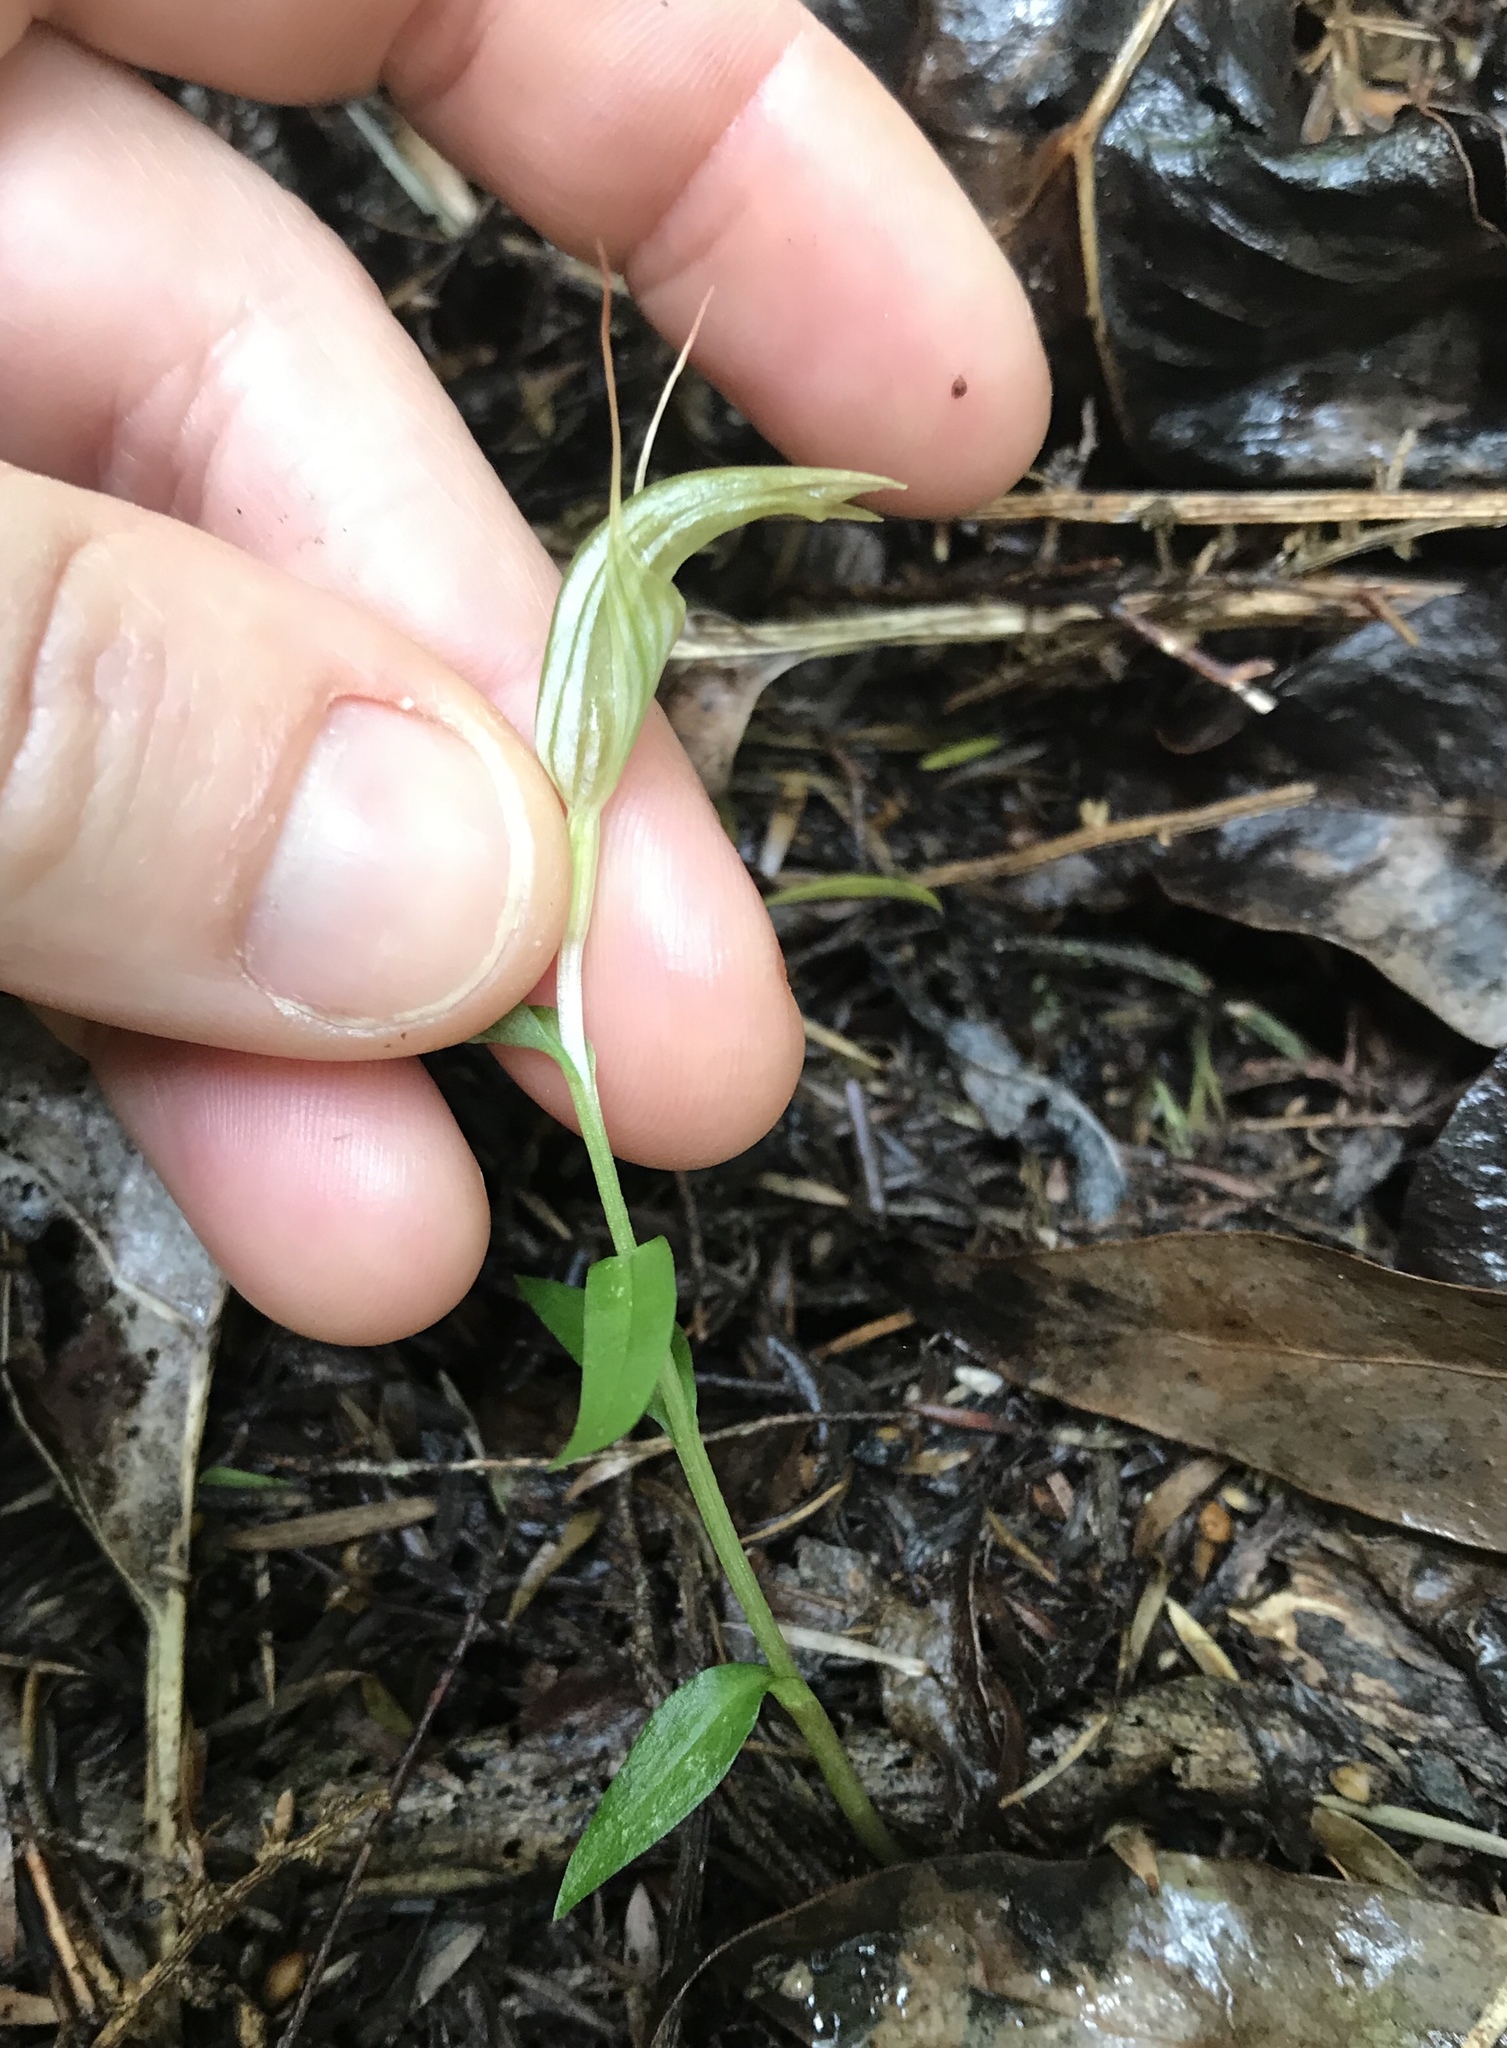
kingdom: Plantae
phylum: Tracheophyta
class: Liliopsida
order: Asparagales
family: Orchidaceae
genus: Pterostylis
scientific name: Pterostylis alobula
